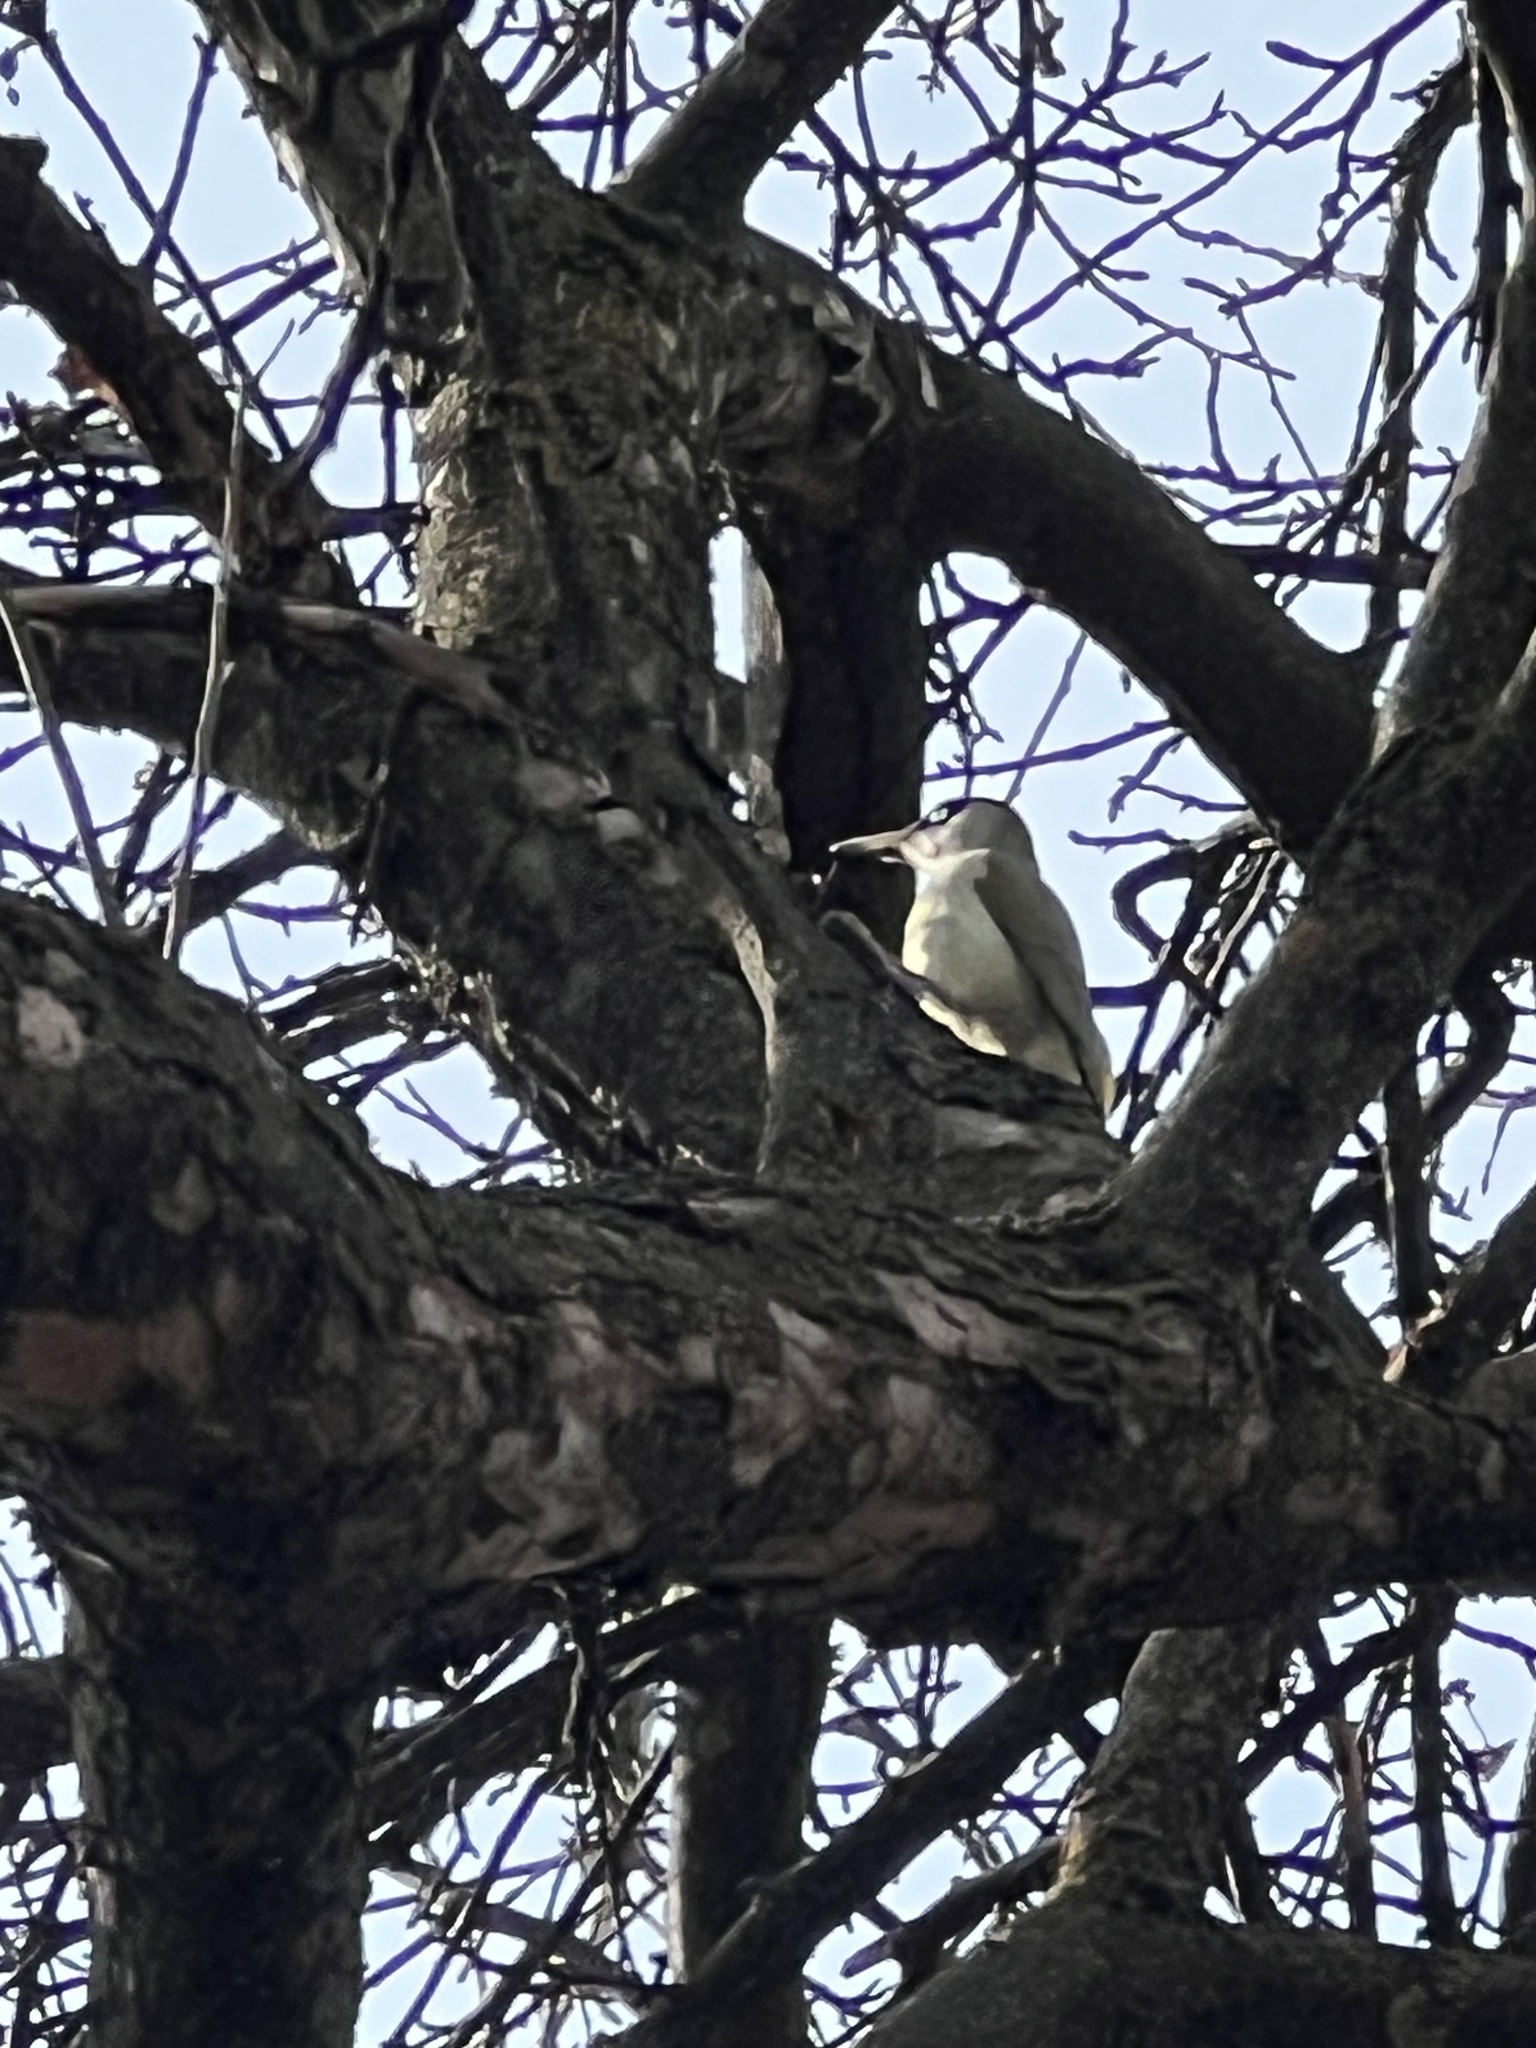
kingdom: Animalia
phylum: Chordata
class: Aves
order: Piciformes
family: Picidae
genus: Picus
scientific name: Picus viridis
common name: European green woodpecker
